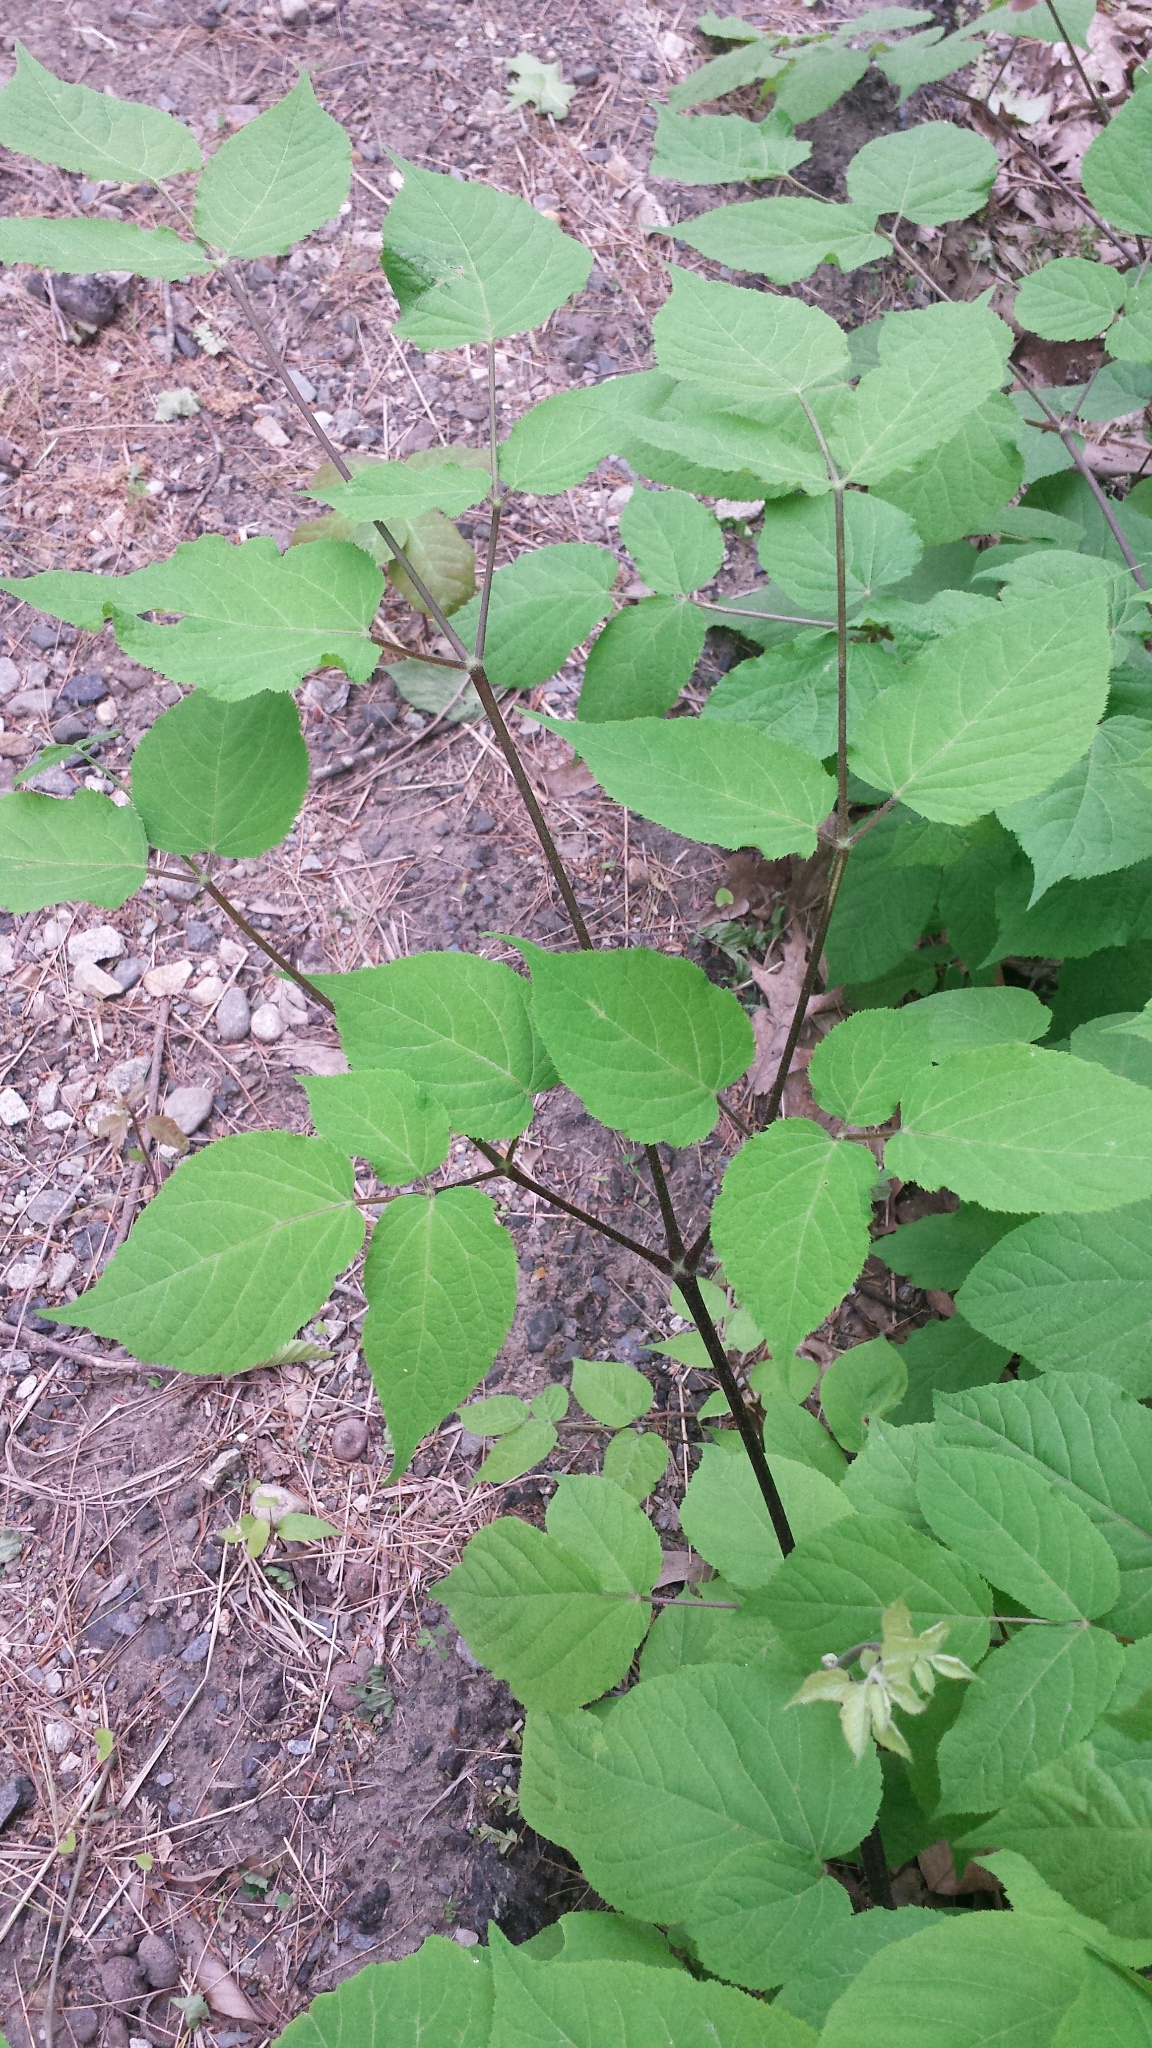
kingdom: Plantae
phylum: Tracheophyta
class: Magnoliopsida
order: Apiales
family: Araliaceae
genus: Aralia
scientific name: Aralia racemosa
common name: American-spikenard
